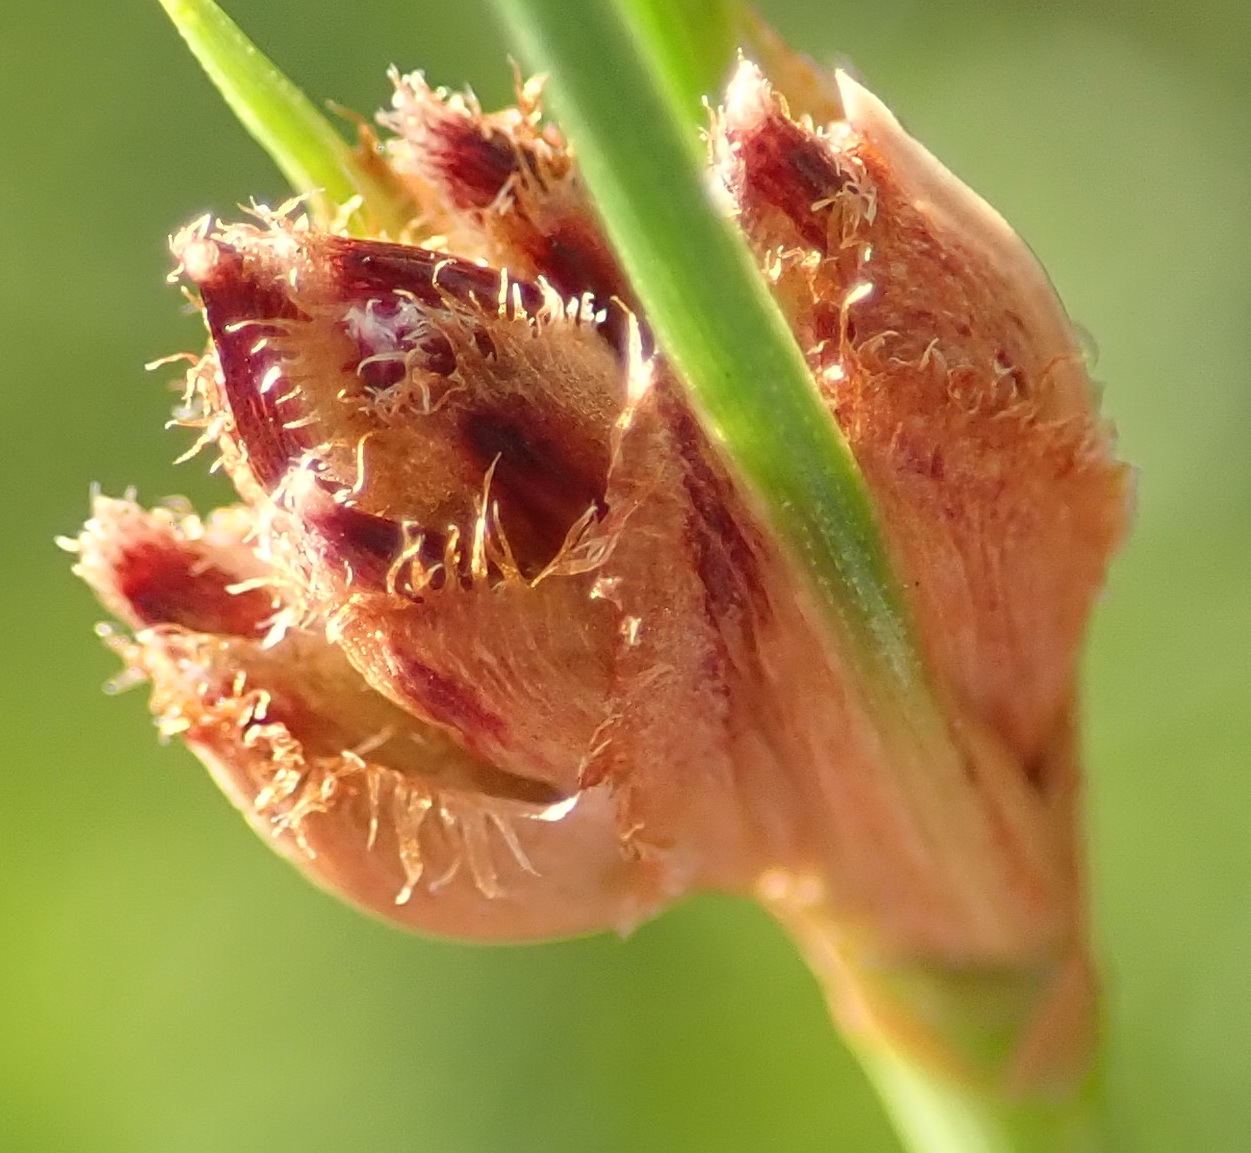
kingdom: Plantae
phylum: Tracheophyta
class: Liliopsida
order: Poales
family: Cyperaceae
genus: Ficinia
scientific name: Ficinia laciniata
